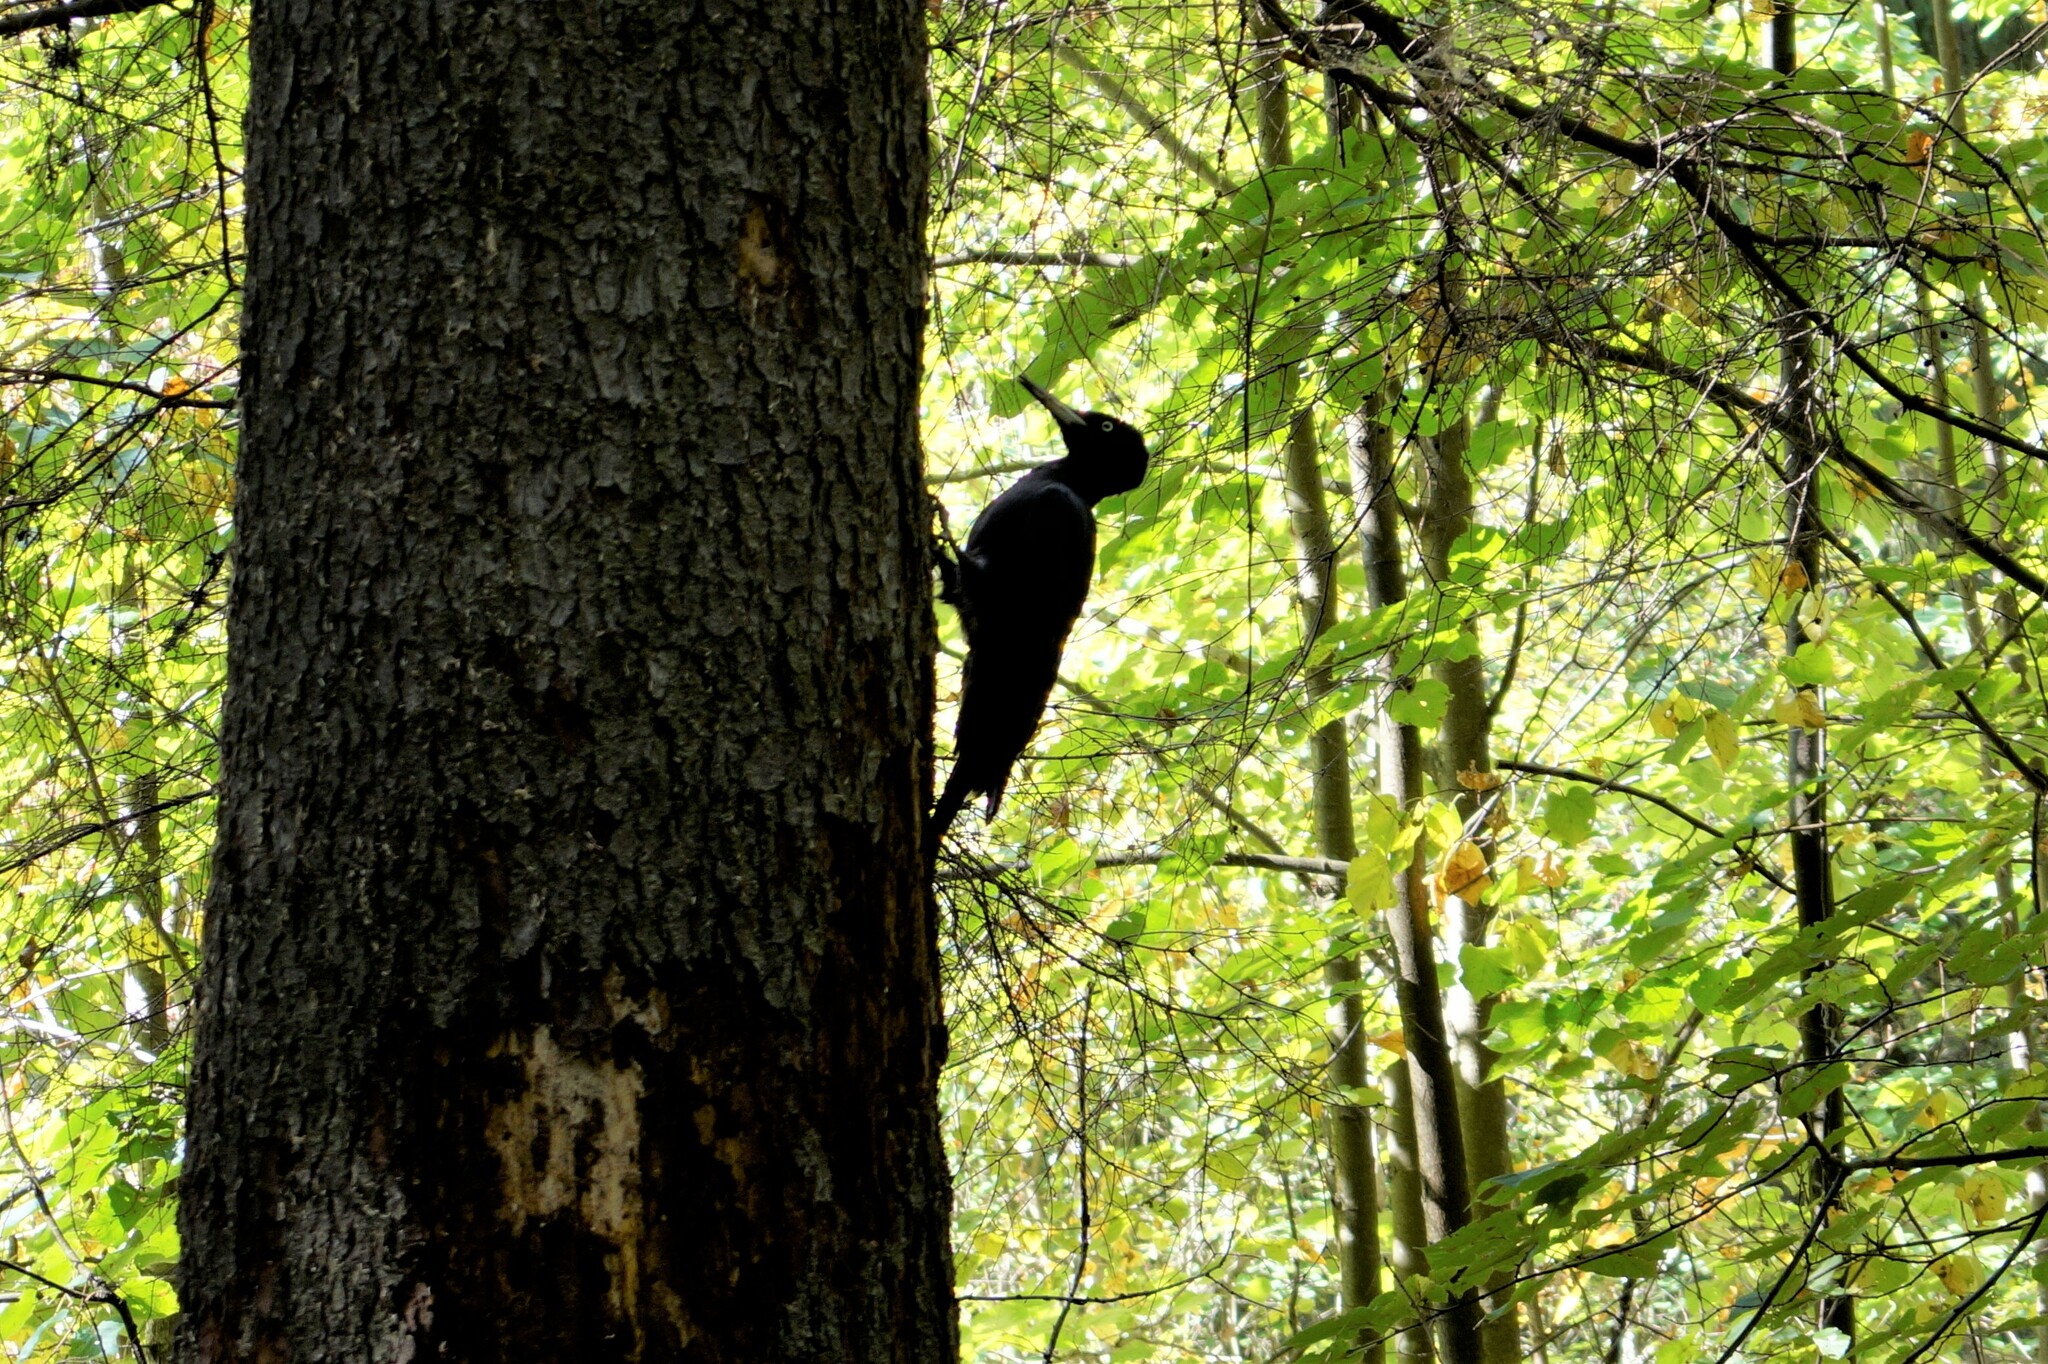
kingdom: Animalia
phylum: Chordata
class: Aves
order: Piciformes
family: Picidae
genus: Dryocopus
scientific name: Dryocopus martius
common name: Black woodpecker
